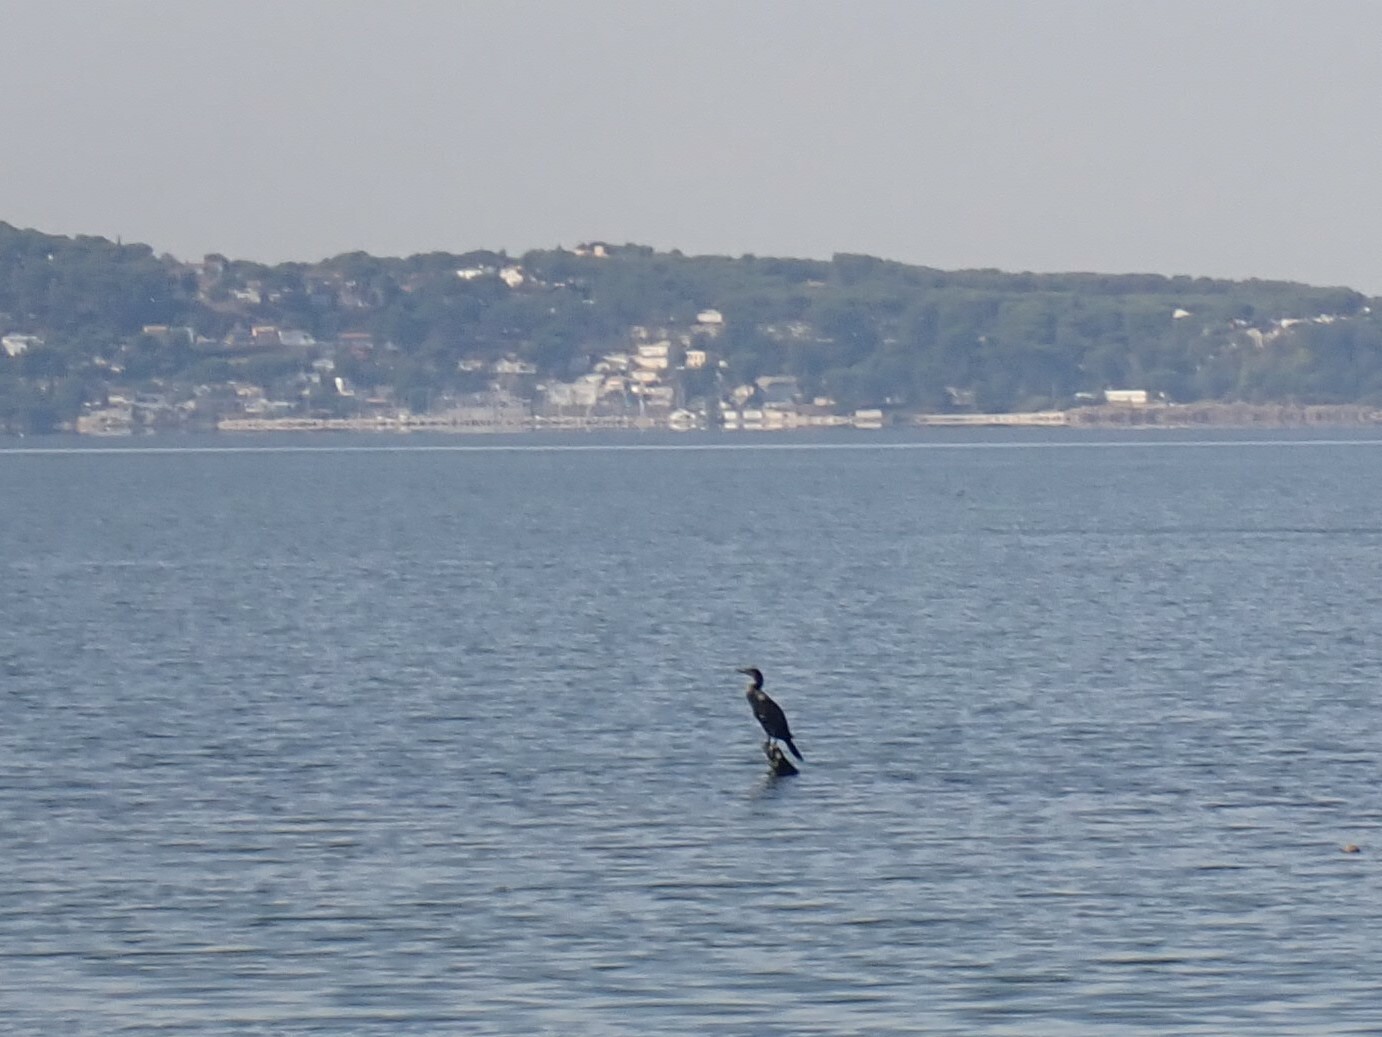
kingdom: Animalia
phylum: Chordata
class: Aves
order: Suliformes
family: Phalacrocoracidae
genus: Phalacrocorax
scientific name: Phalacrocorax carbo
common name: Great cormorant
